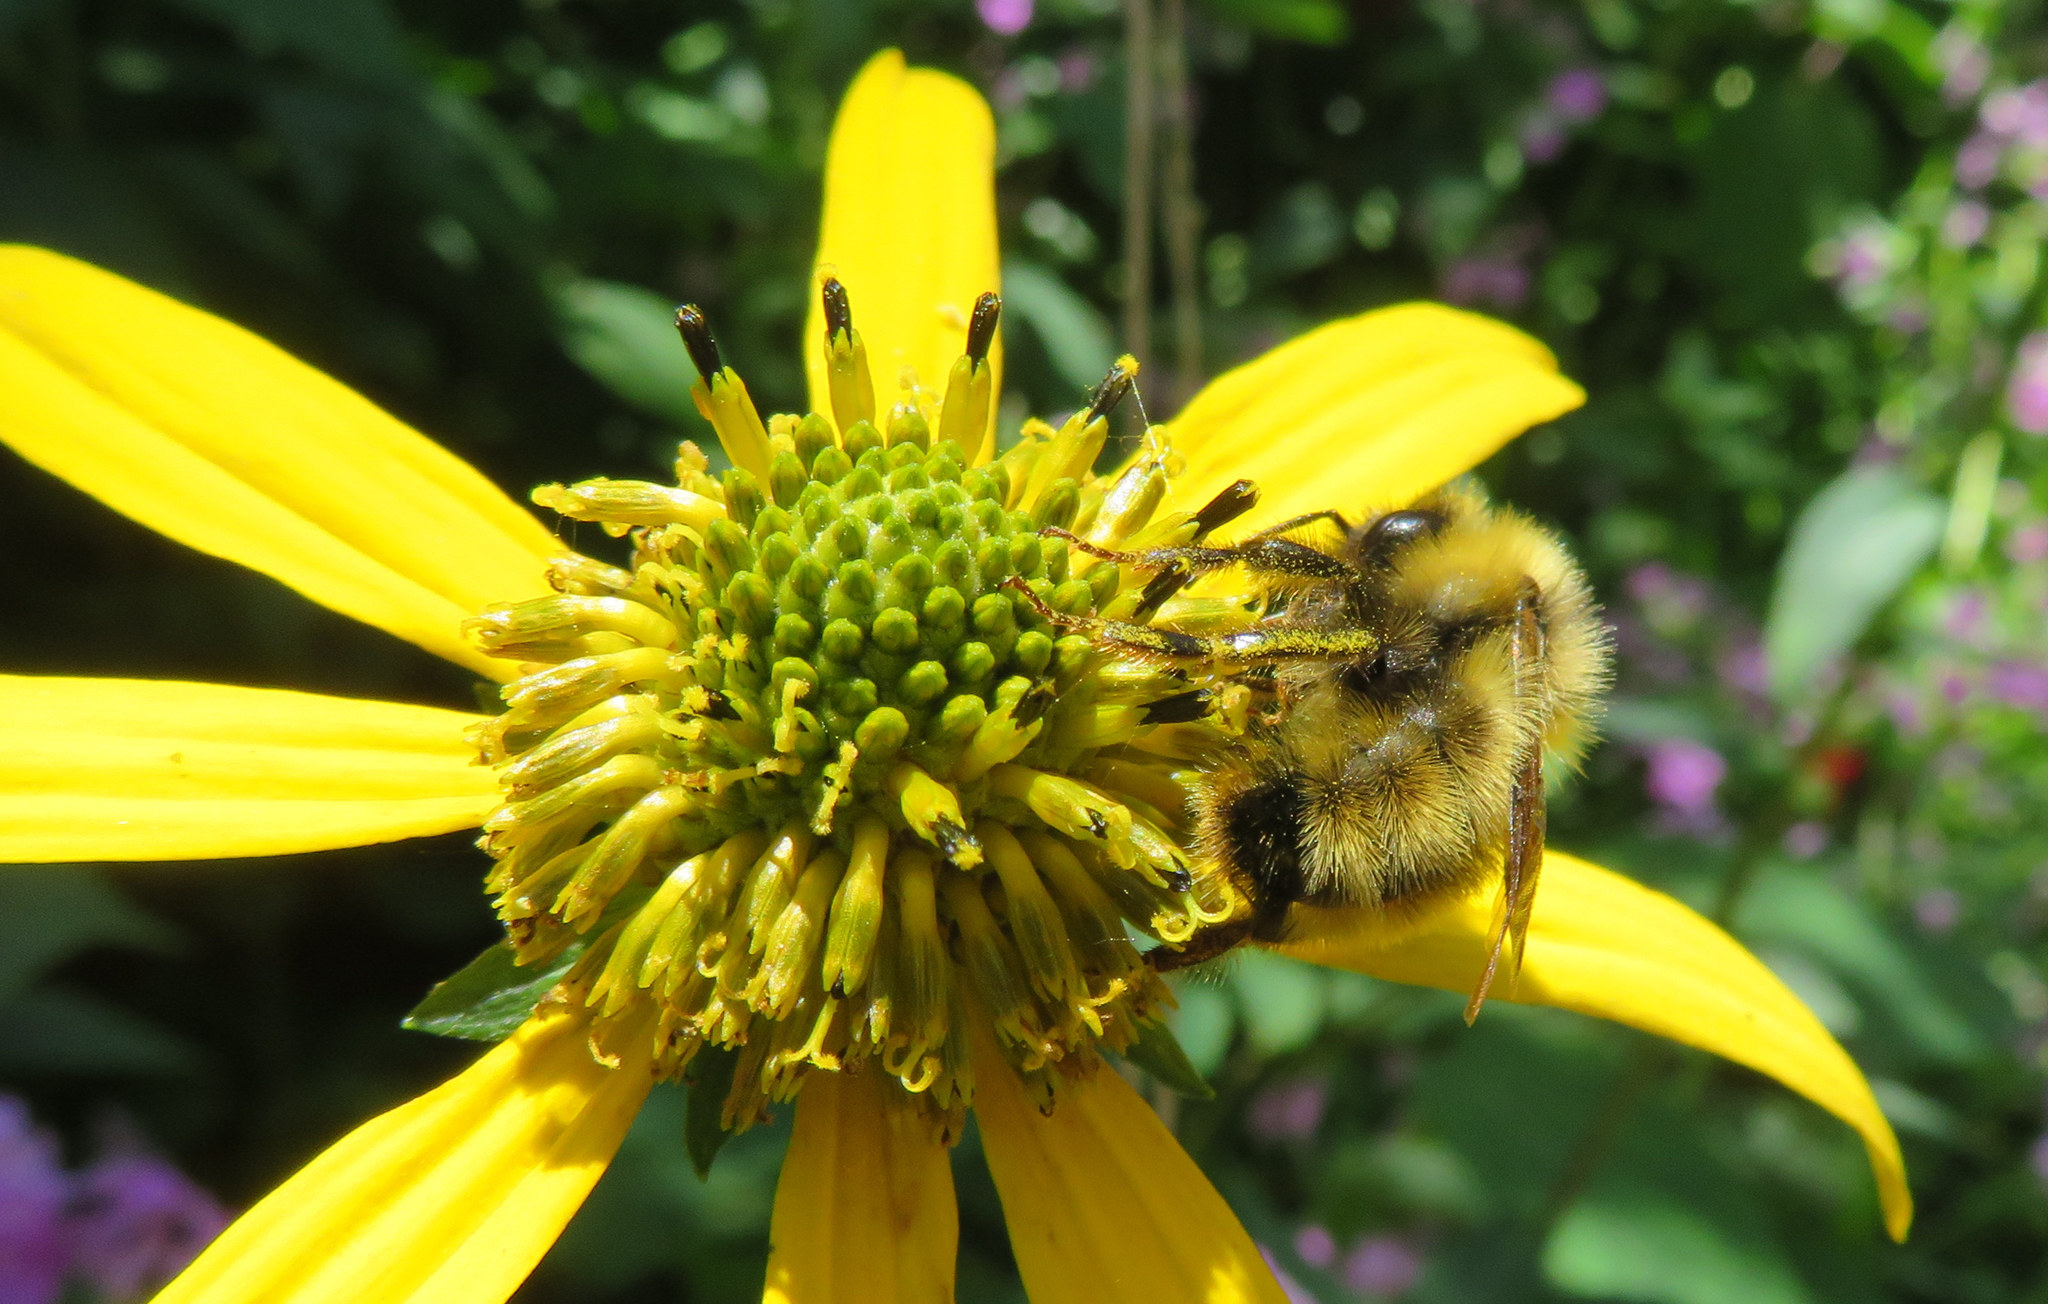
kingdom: Animalia
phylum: Arthropoda
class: Insecta
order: Hymenoptera
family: Apidae
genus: Bombus
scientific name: Bombus perplexus
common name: Confusing bumble bee
